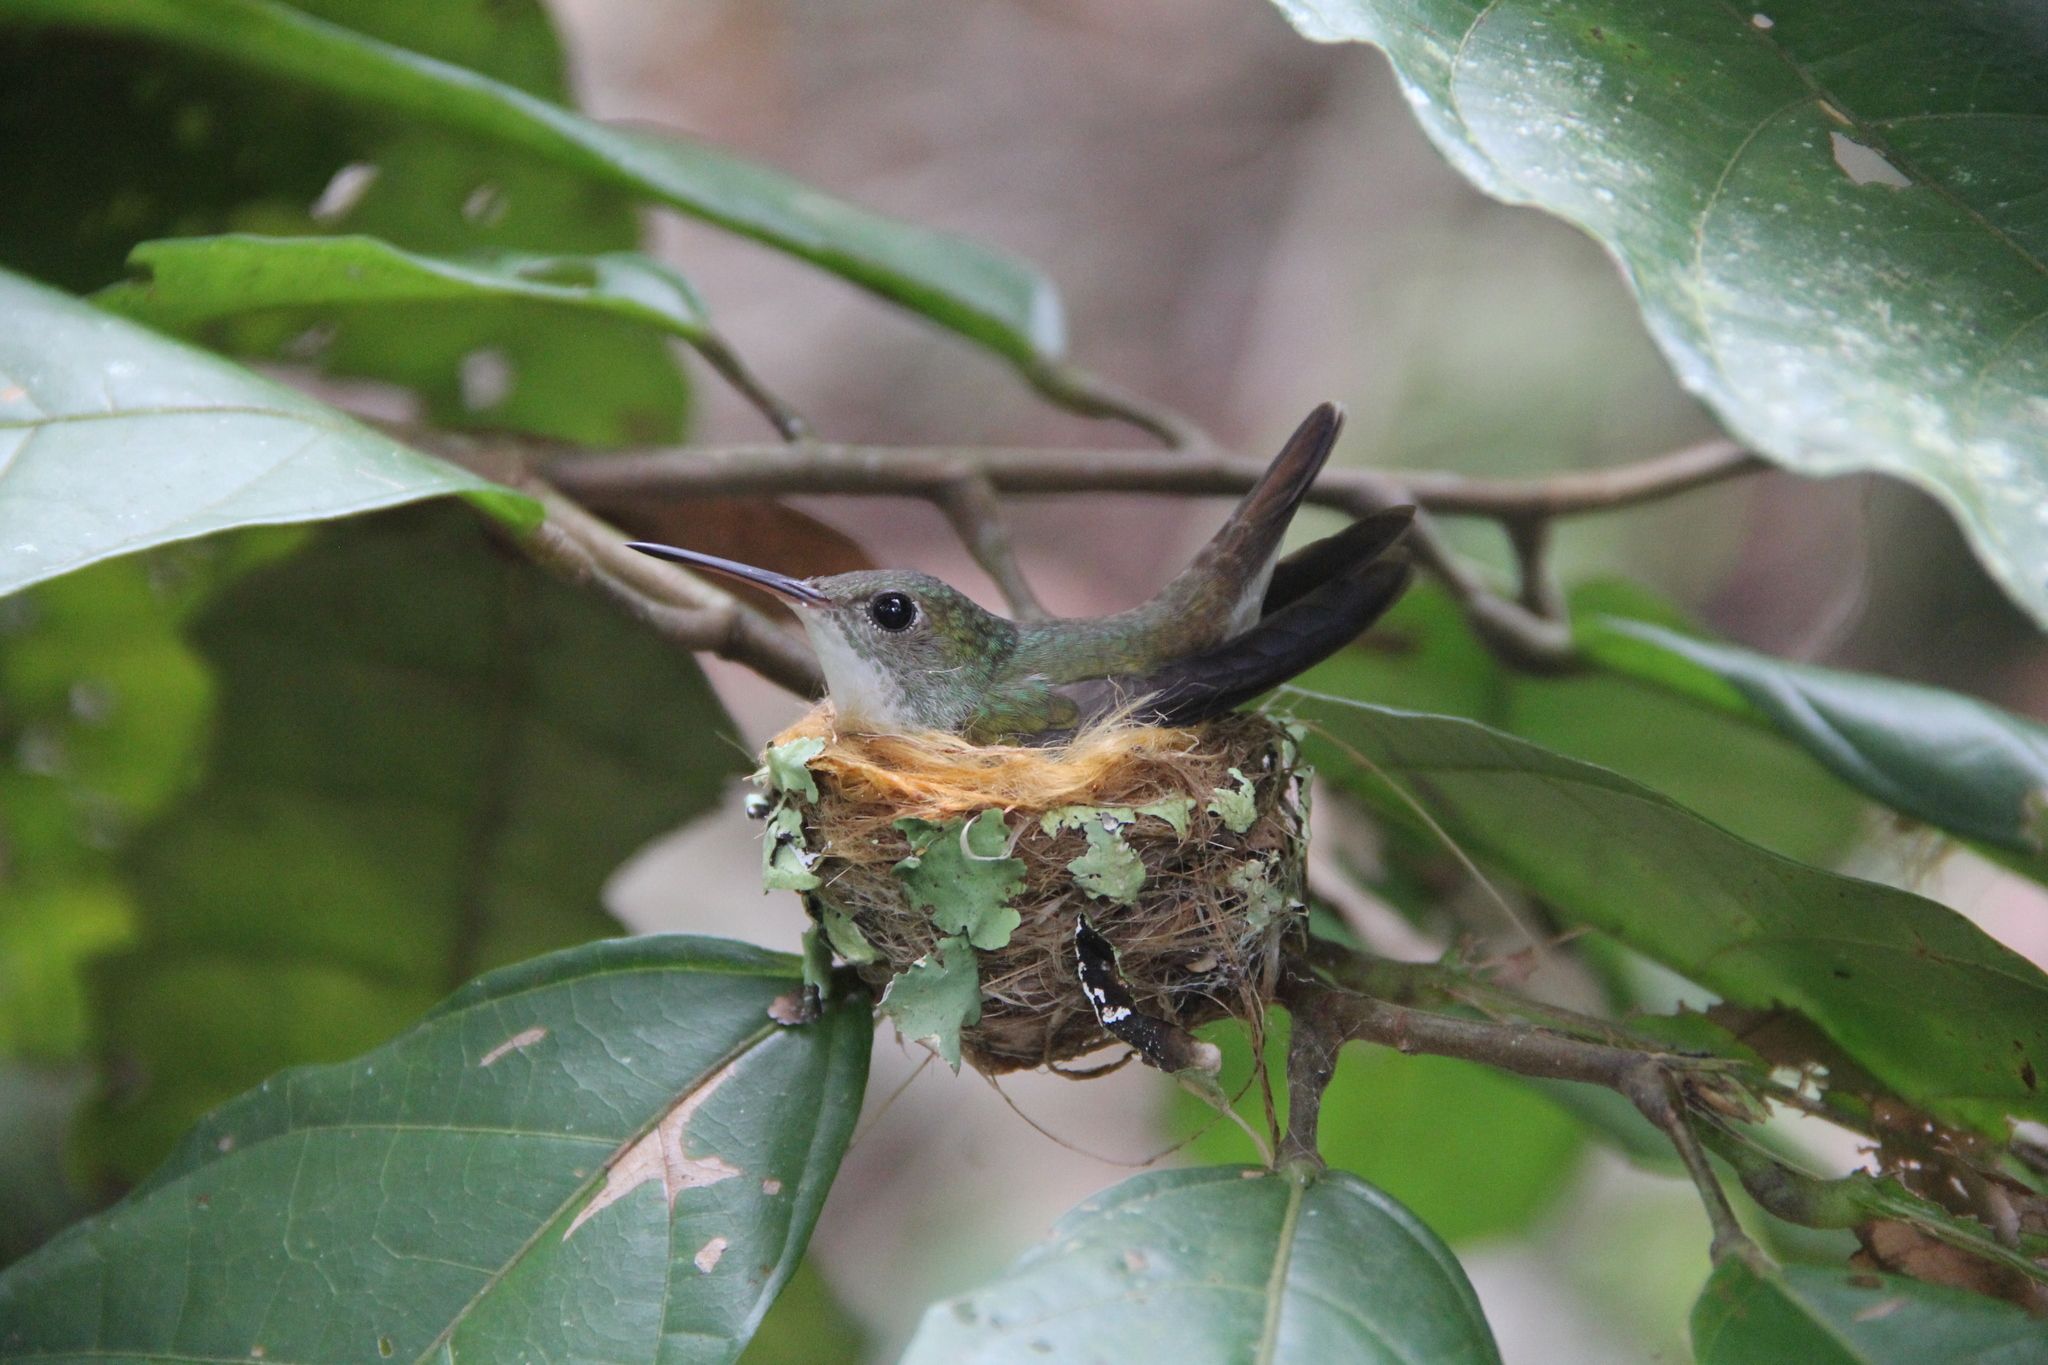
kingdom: Animalia
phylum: Chordata
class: Aves
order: Apodiformes
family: Trochilidae
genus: Chlorestes
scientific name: Chlorestes candida
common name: White-bellied emerald
